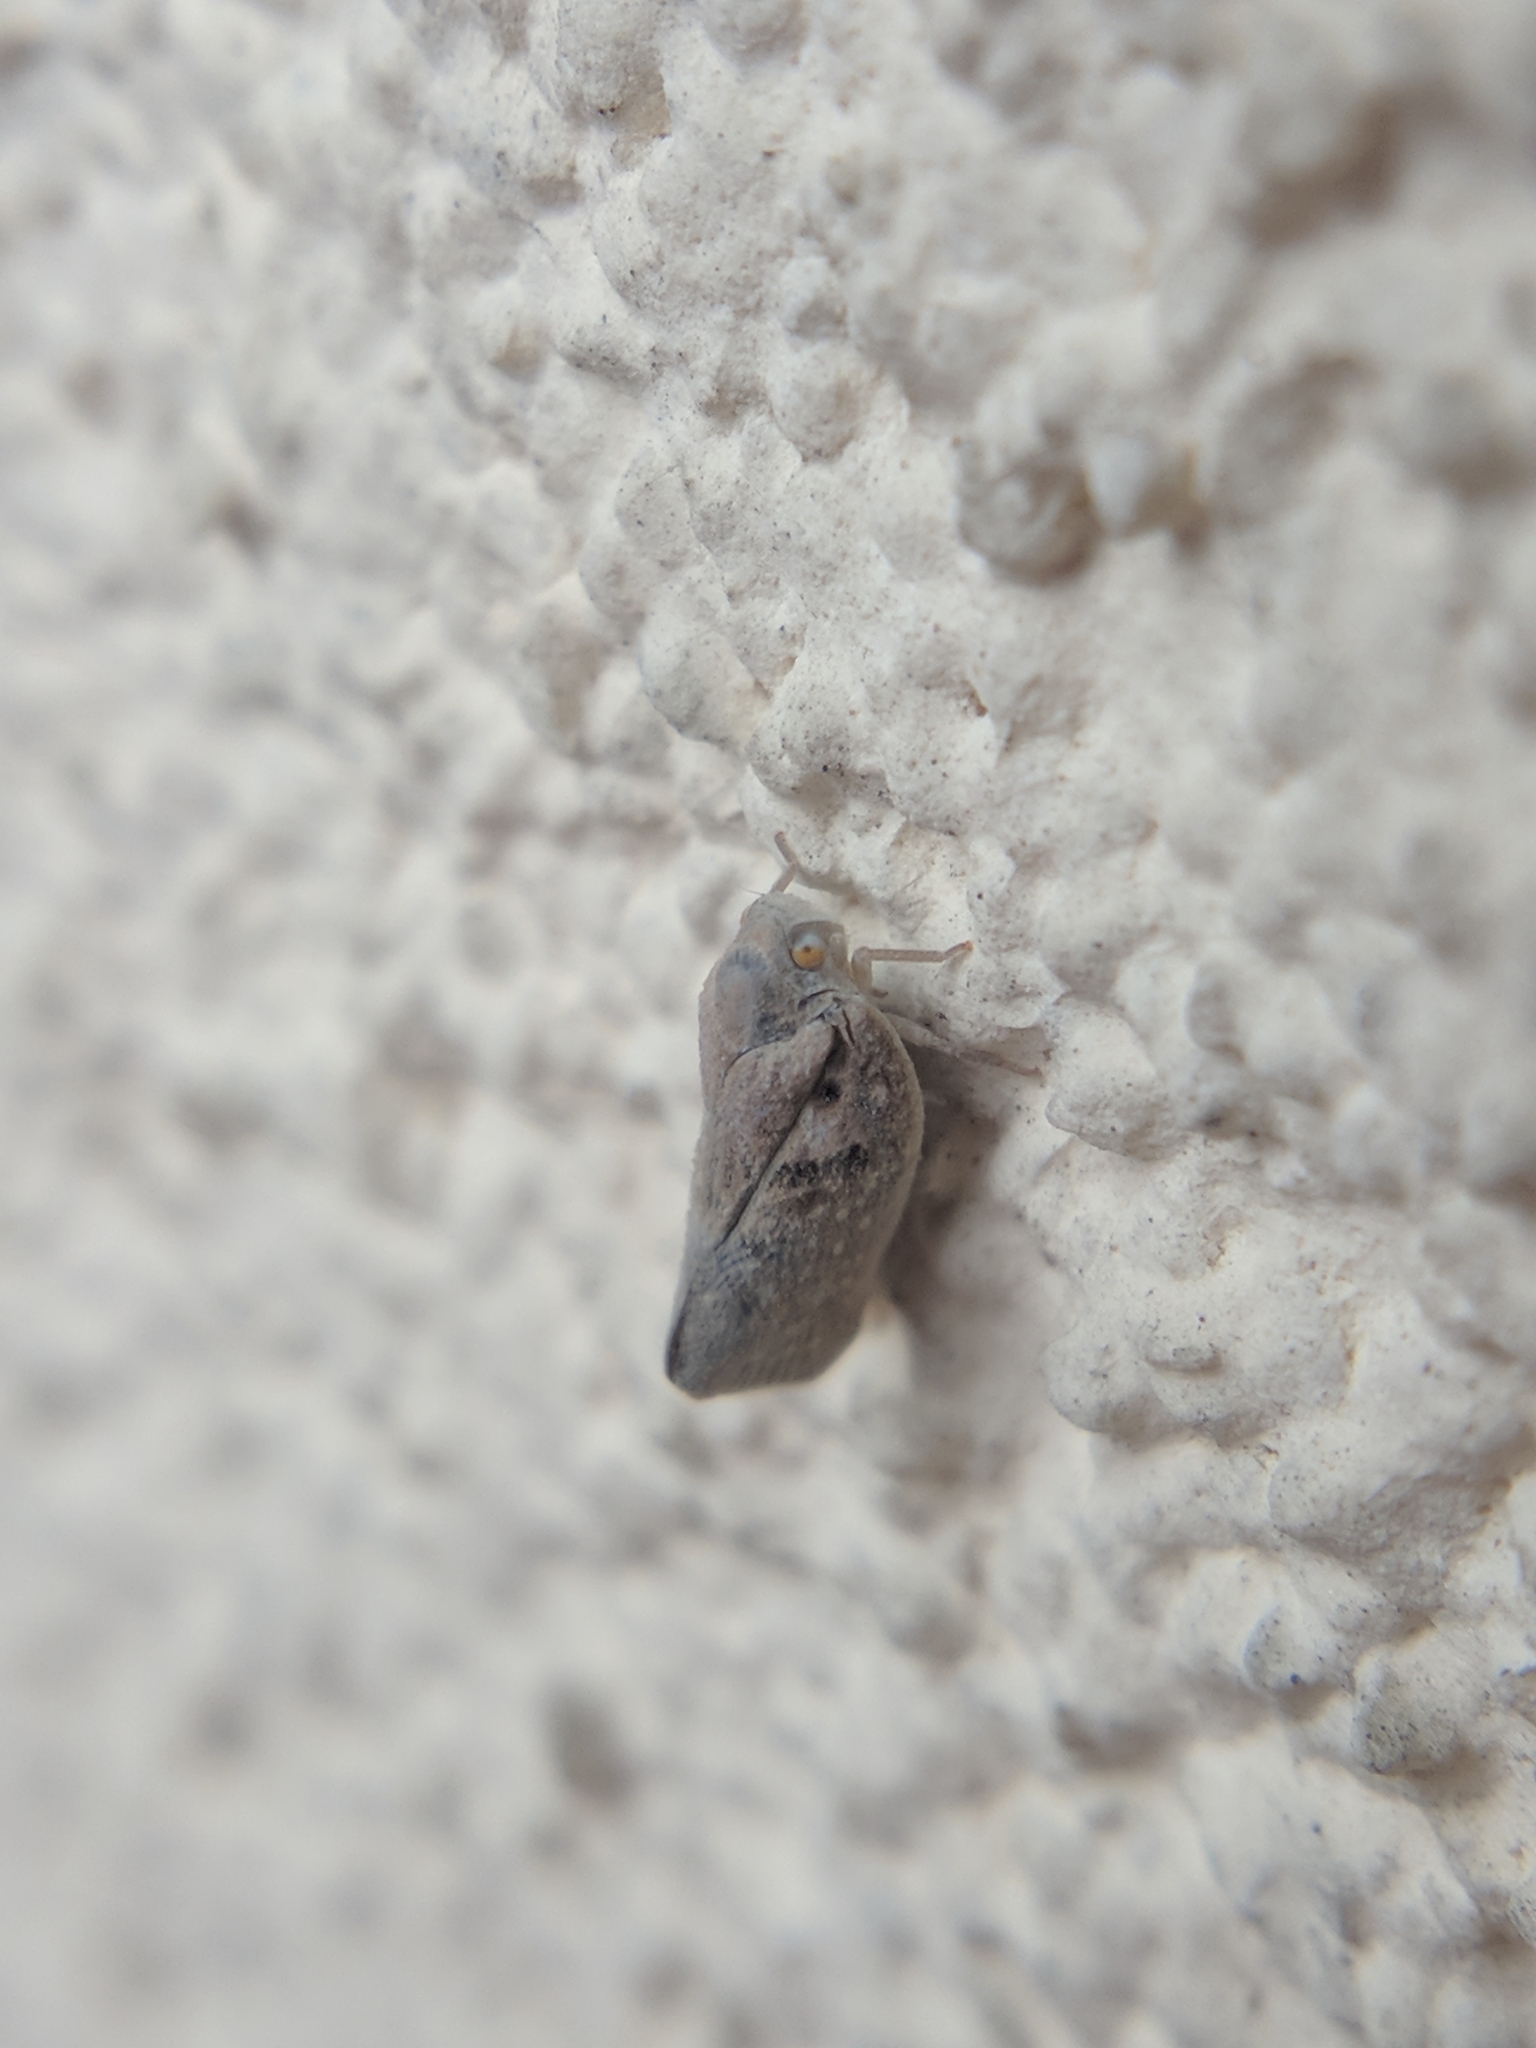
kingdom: Animalia
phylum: Arthropoda
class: Insecta
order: Hemiptera
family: Flatidae
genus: Metcalfa
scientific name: Metcalfa pruinosa
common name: Citrus flatid planthopper
